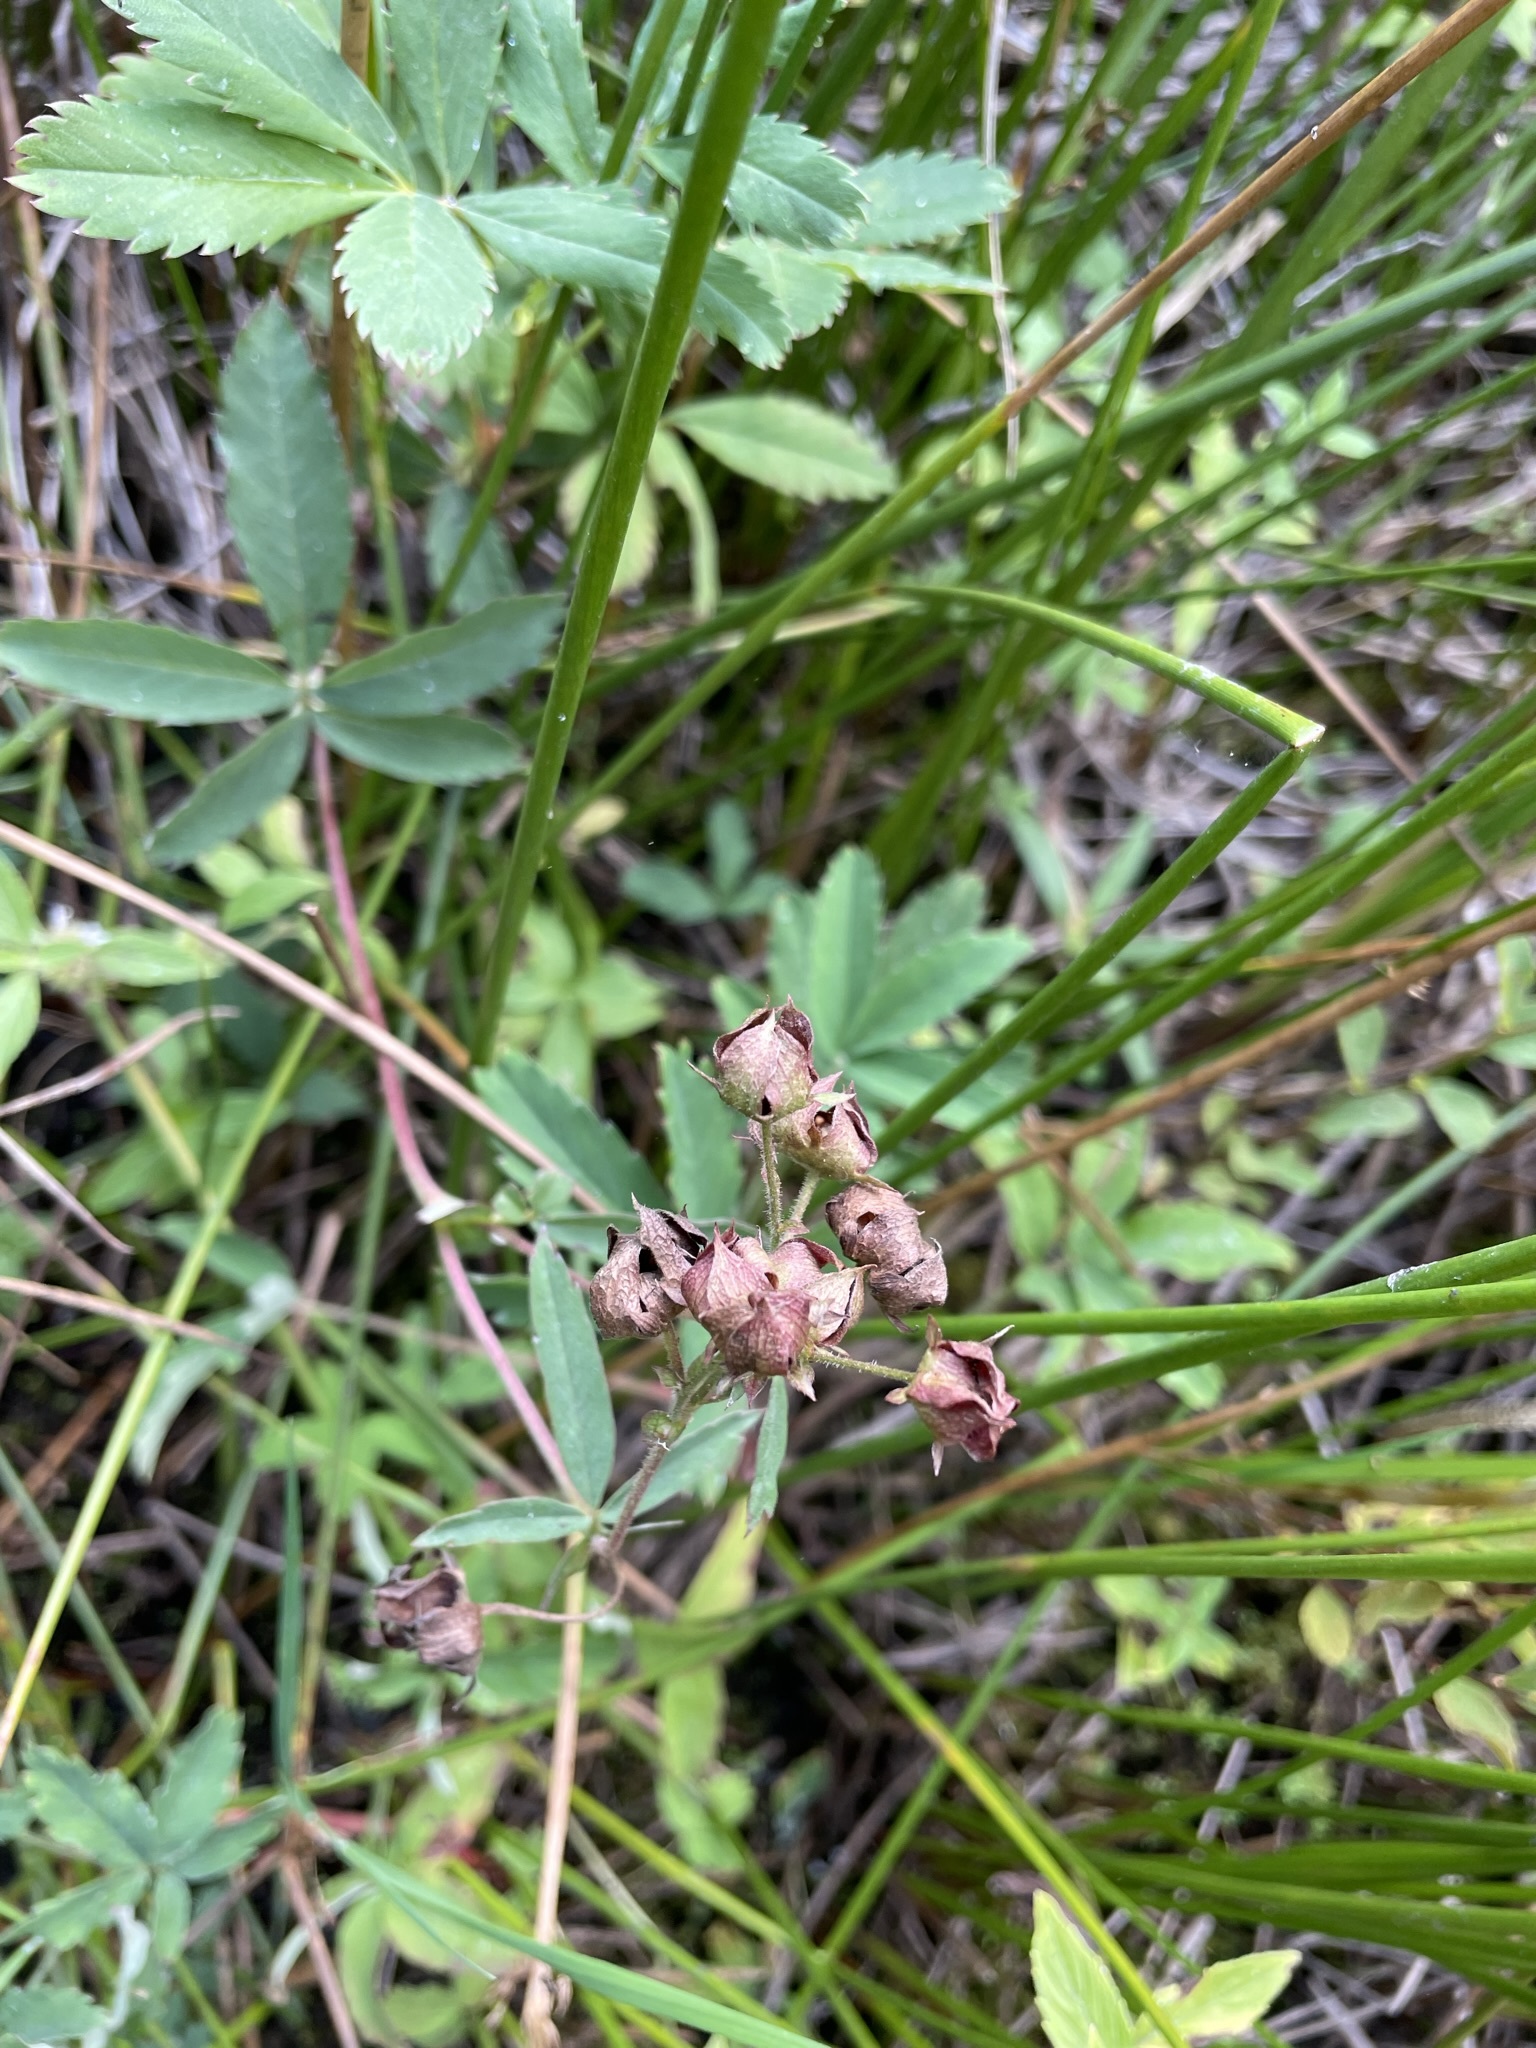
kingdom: Plantae
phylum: Tracheophyta
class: Magnoliopsida
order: Rosales
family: Rosaceae
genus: Comarum
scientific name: Comarum palustre
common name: Marsh cinquefoil
